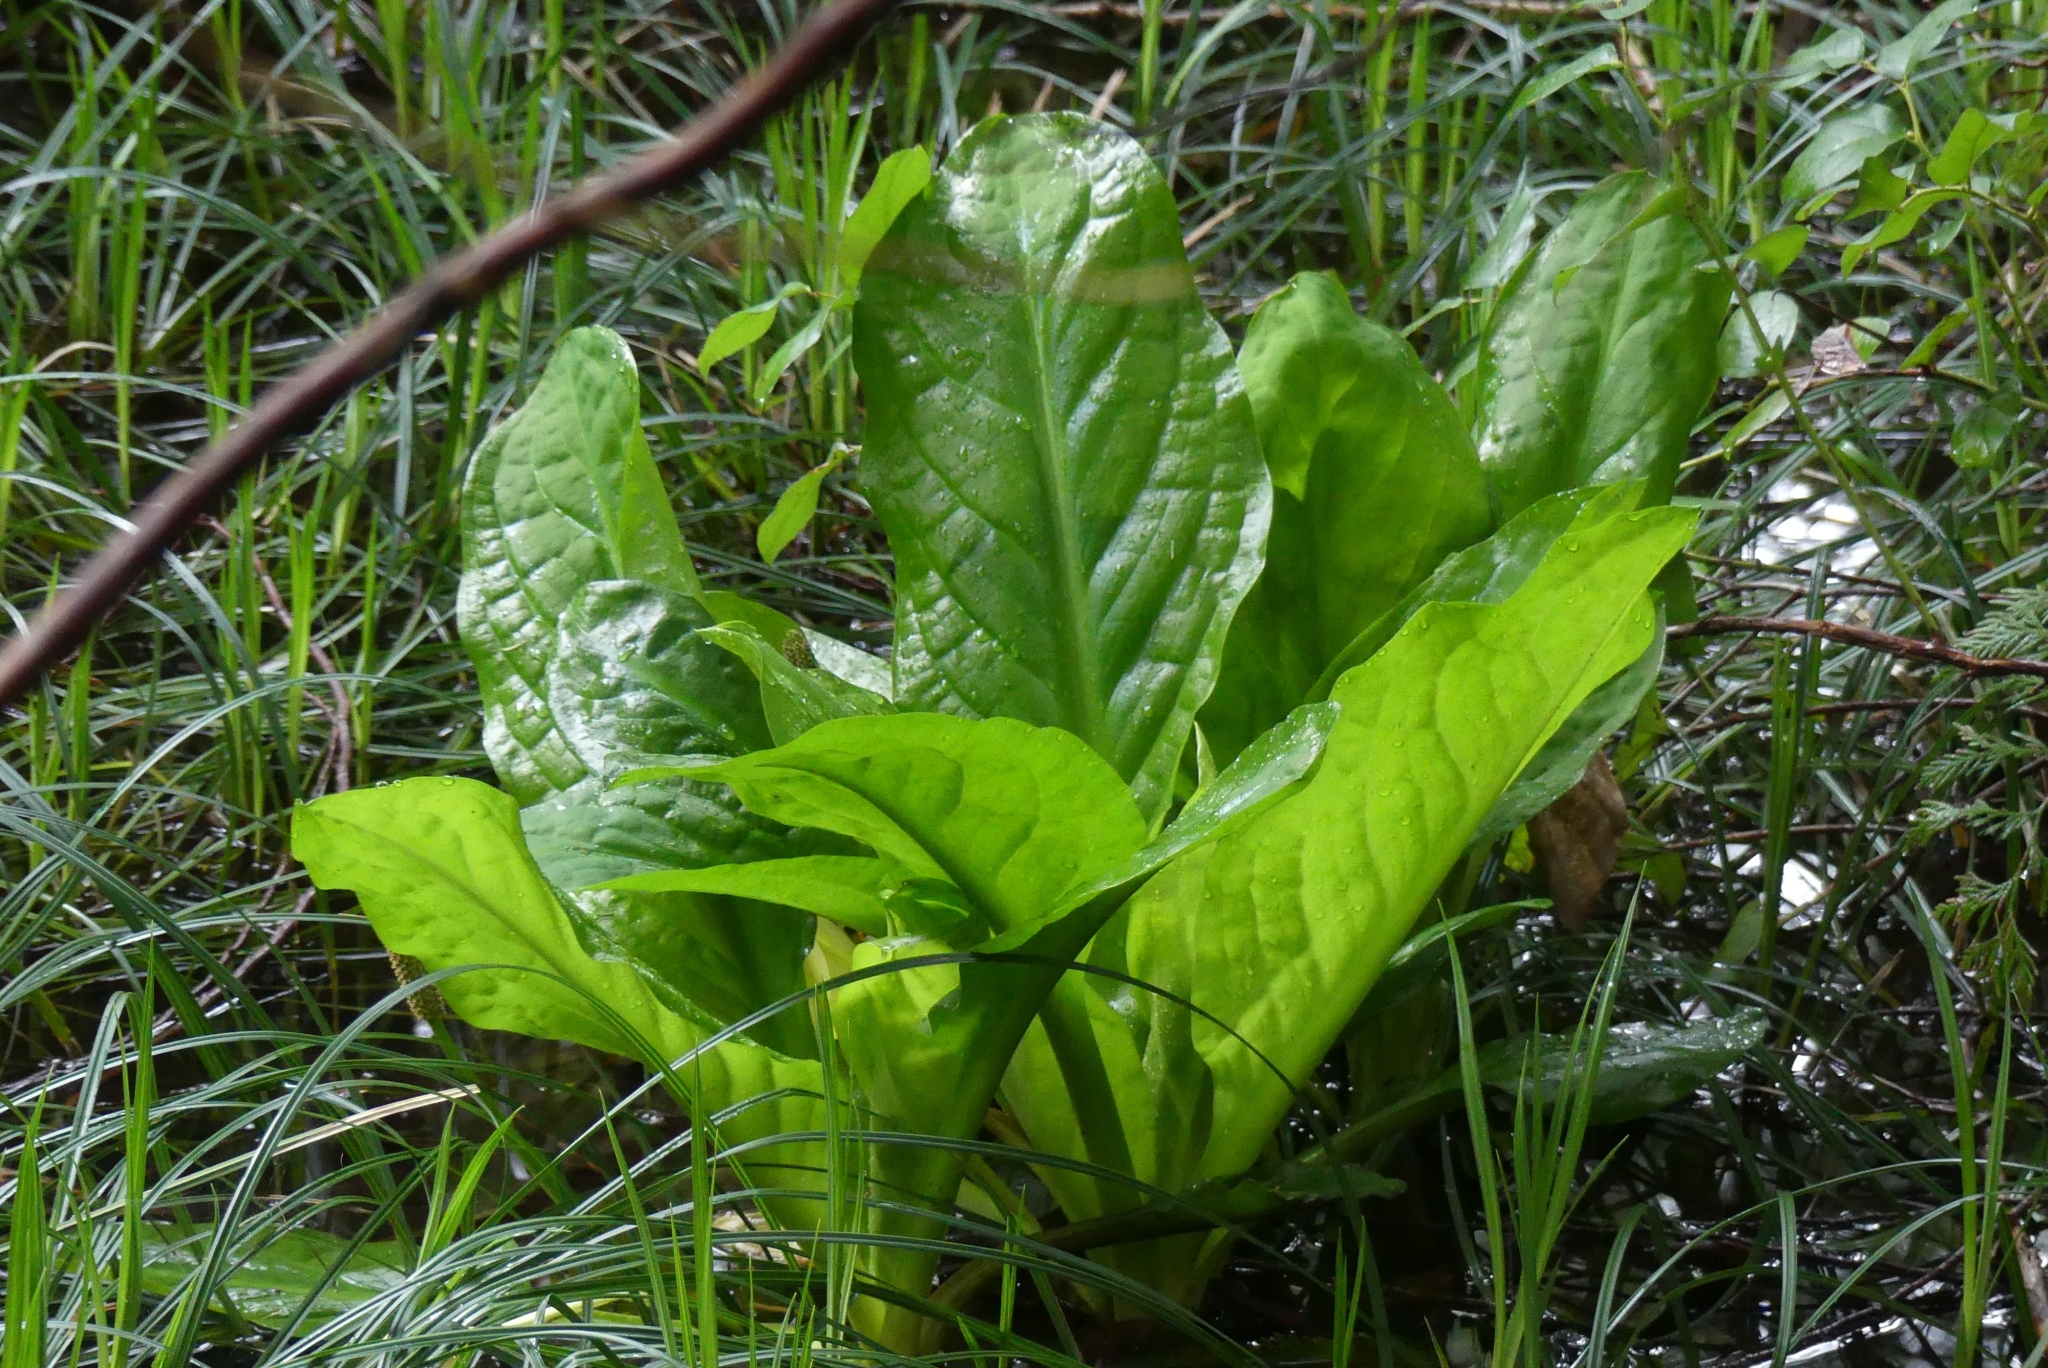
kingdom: Plantae
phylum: Tracheophyta
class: Liliopsida
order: Alismatales
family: Araceae
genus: Lysichiton
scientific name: Lysichiton americanus
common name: American skunk cabbage
